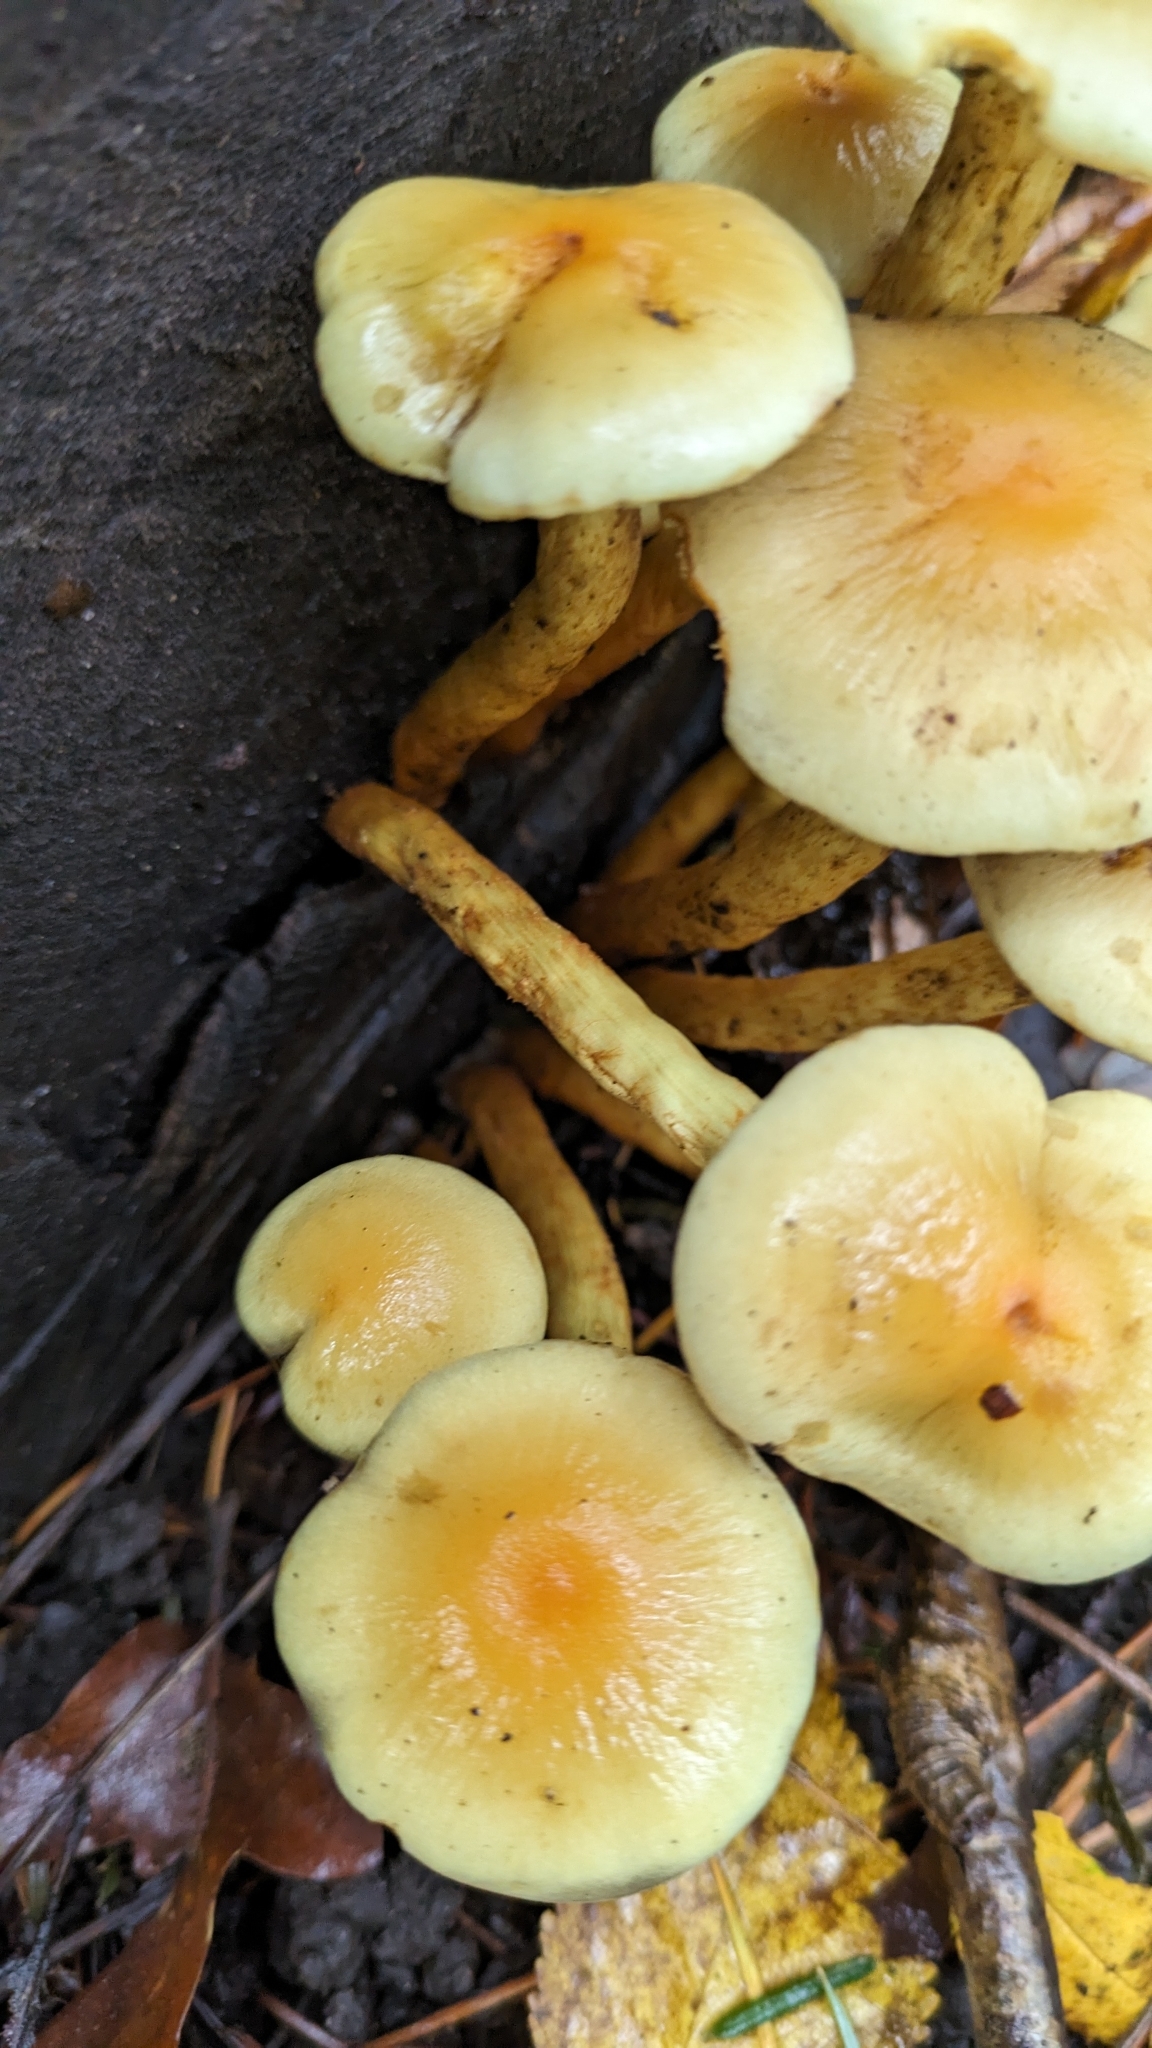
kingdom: Fungi
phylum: Basidiomycota
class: Agaricomycetes
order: Agaricales
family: Strophariaceae
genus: Hypholoma
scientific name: Hypholoma fasciculare
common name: Sulphur tuft
